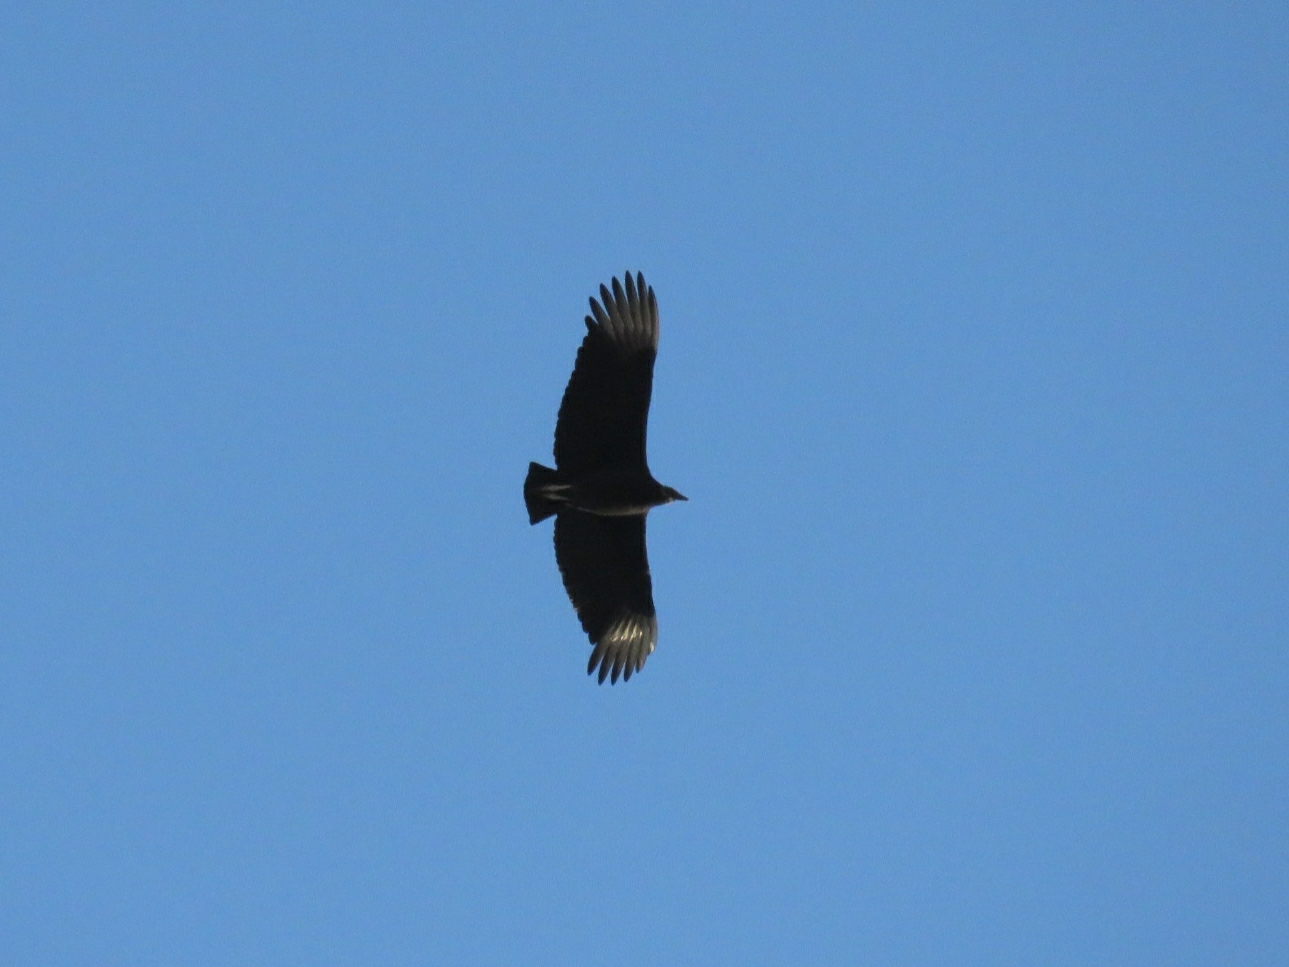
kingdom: Animalia
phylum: Chordata
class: Aves
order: Accipitriformes
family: Cathartidae
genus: Coragyps
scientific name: Coragyps atratus
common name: Black vulture
